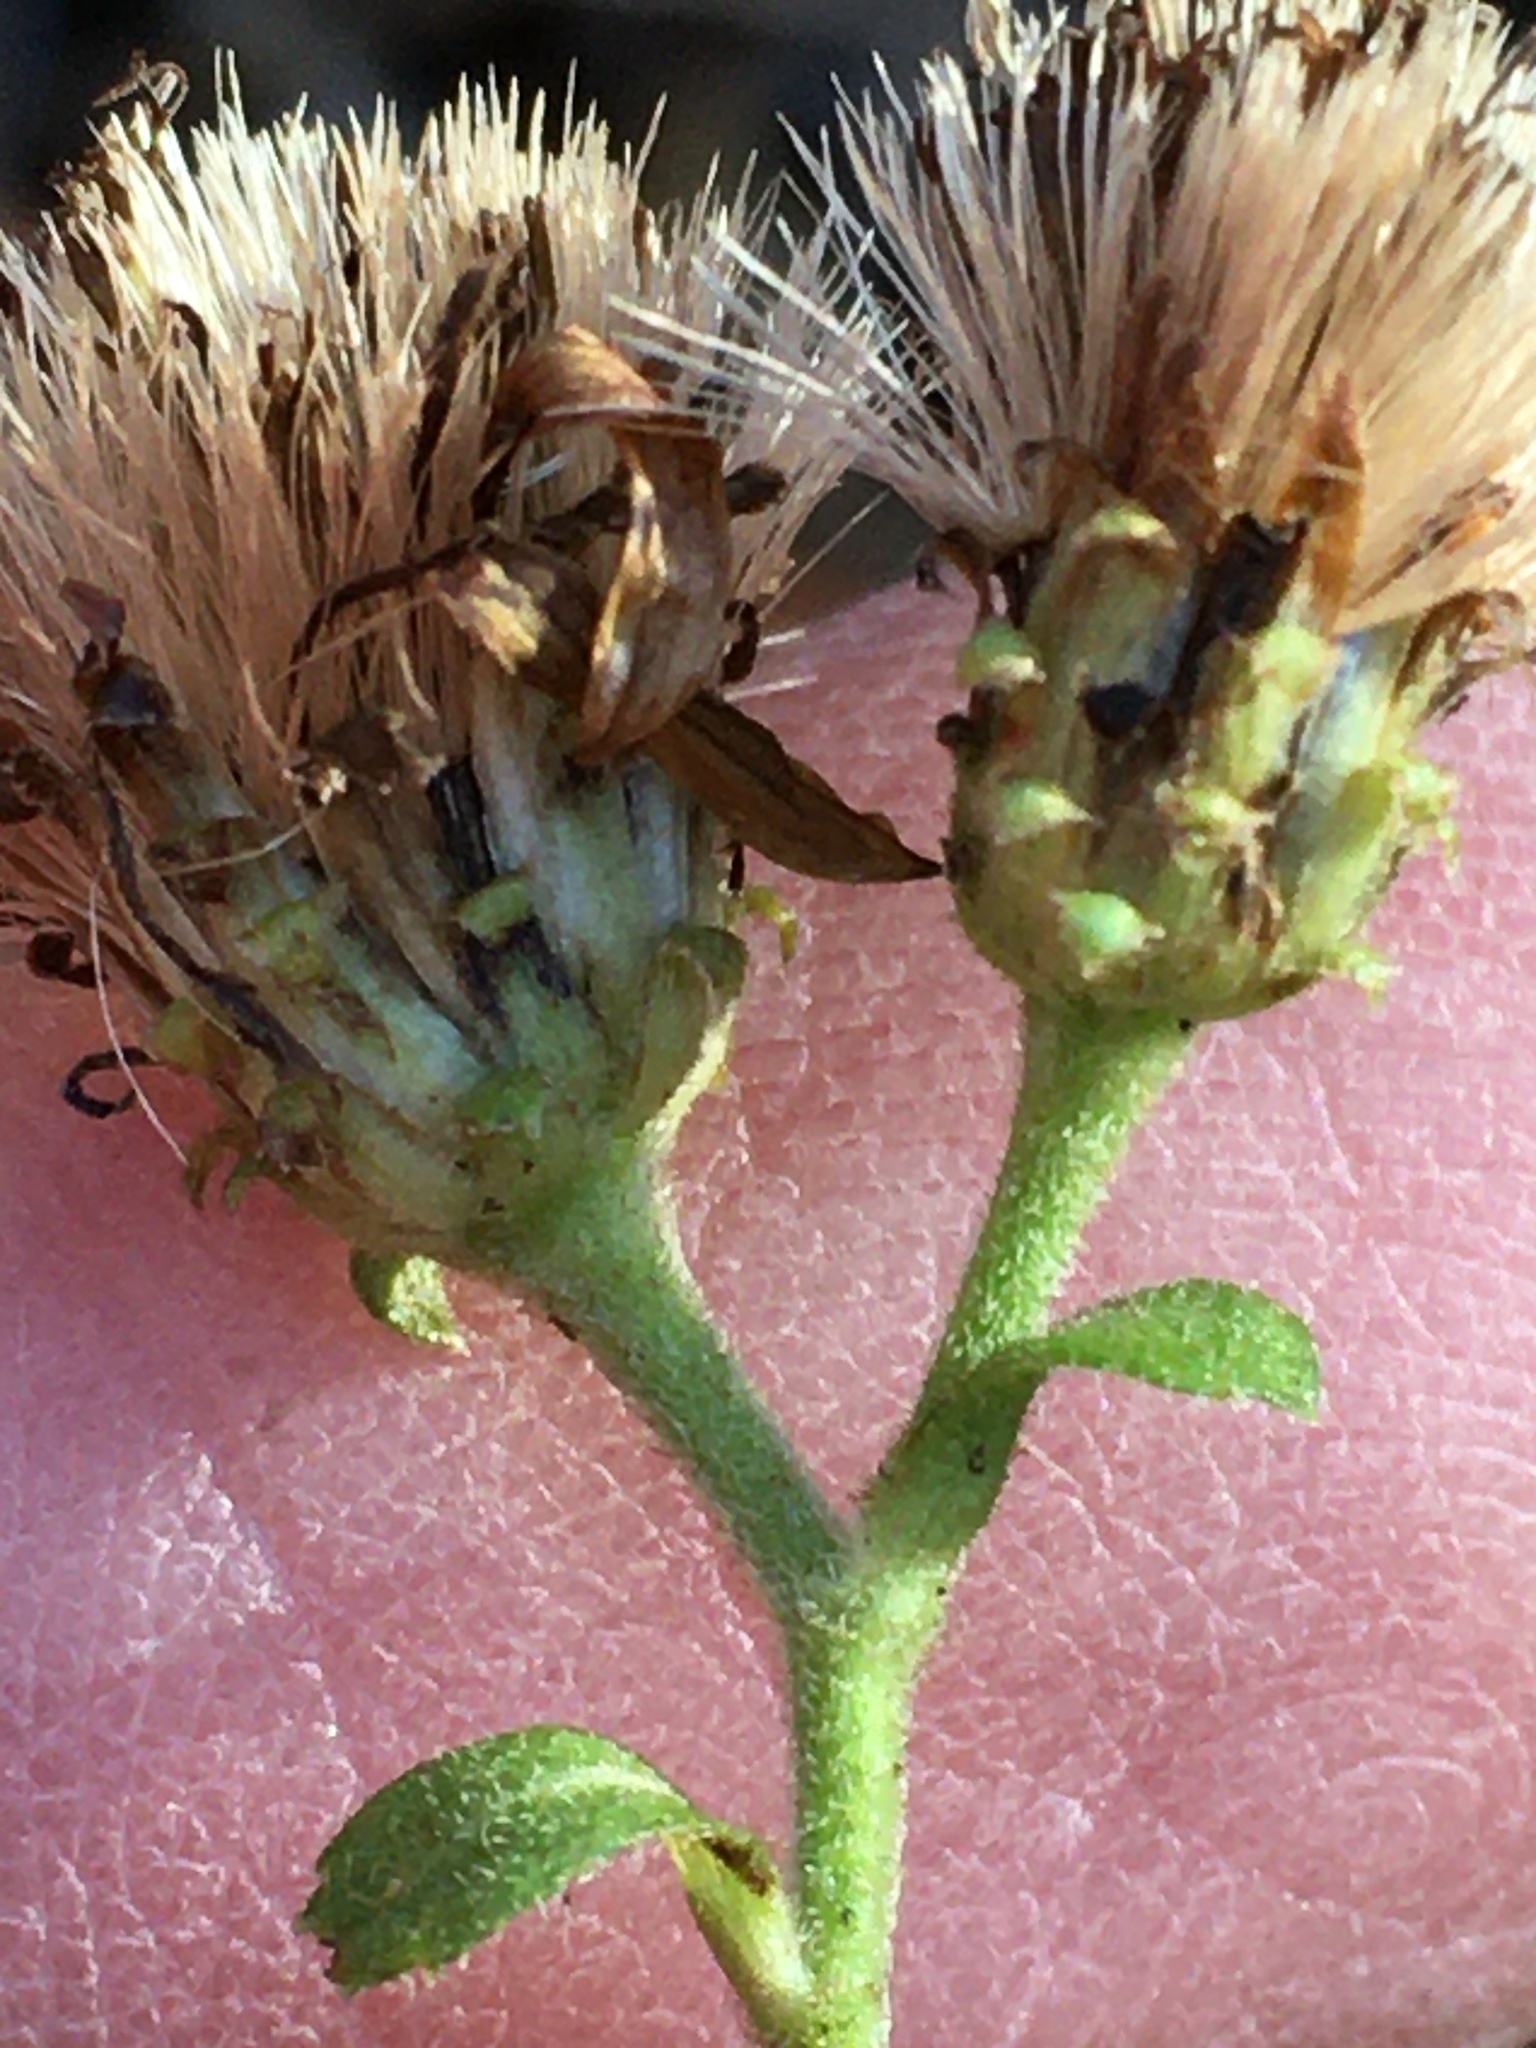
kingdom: Plantae
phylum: Tracheophyta
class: Magnoliopsida
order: Asterales
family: Asteraceae
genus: Eurybia
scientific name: Eurybia mirabilis
